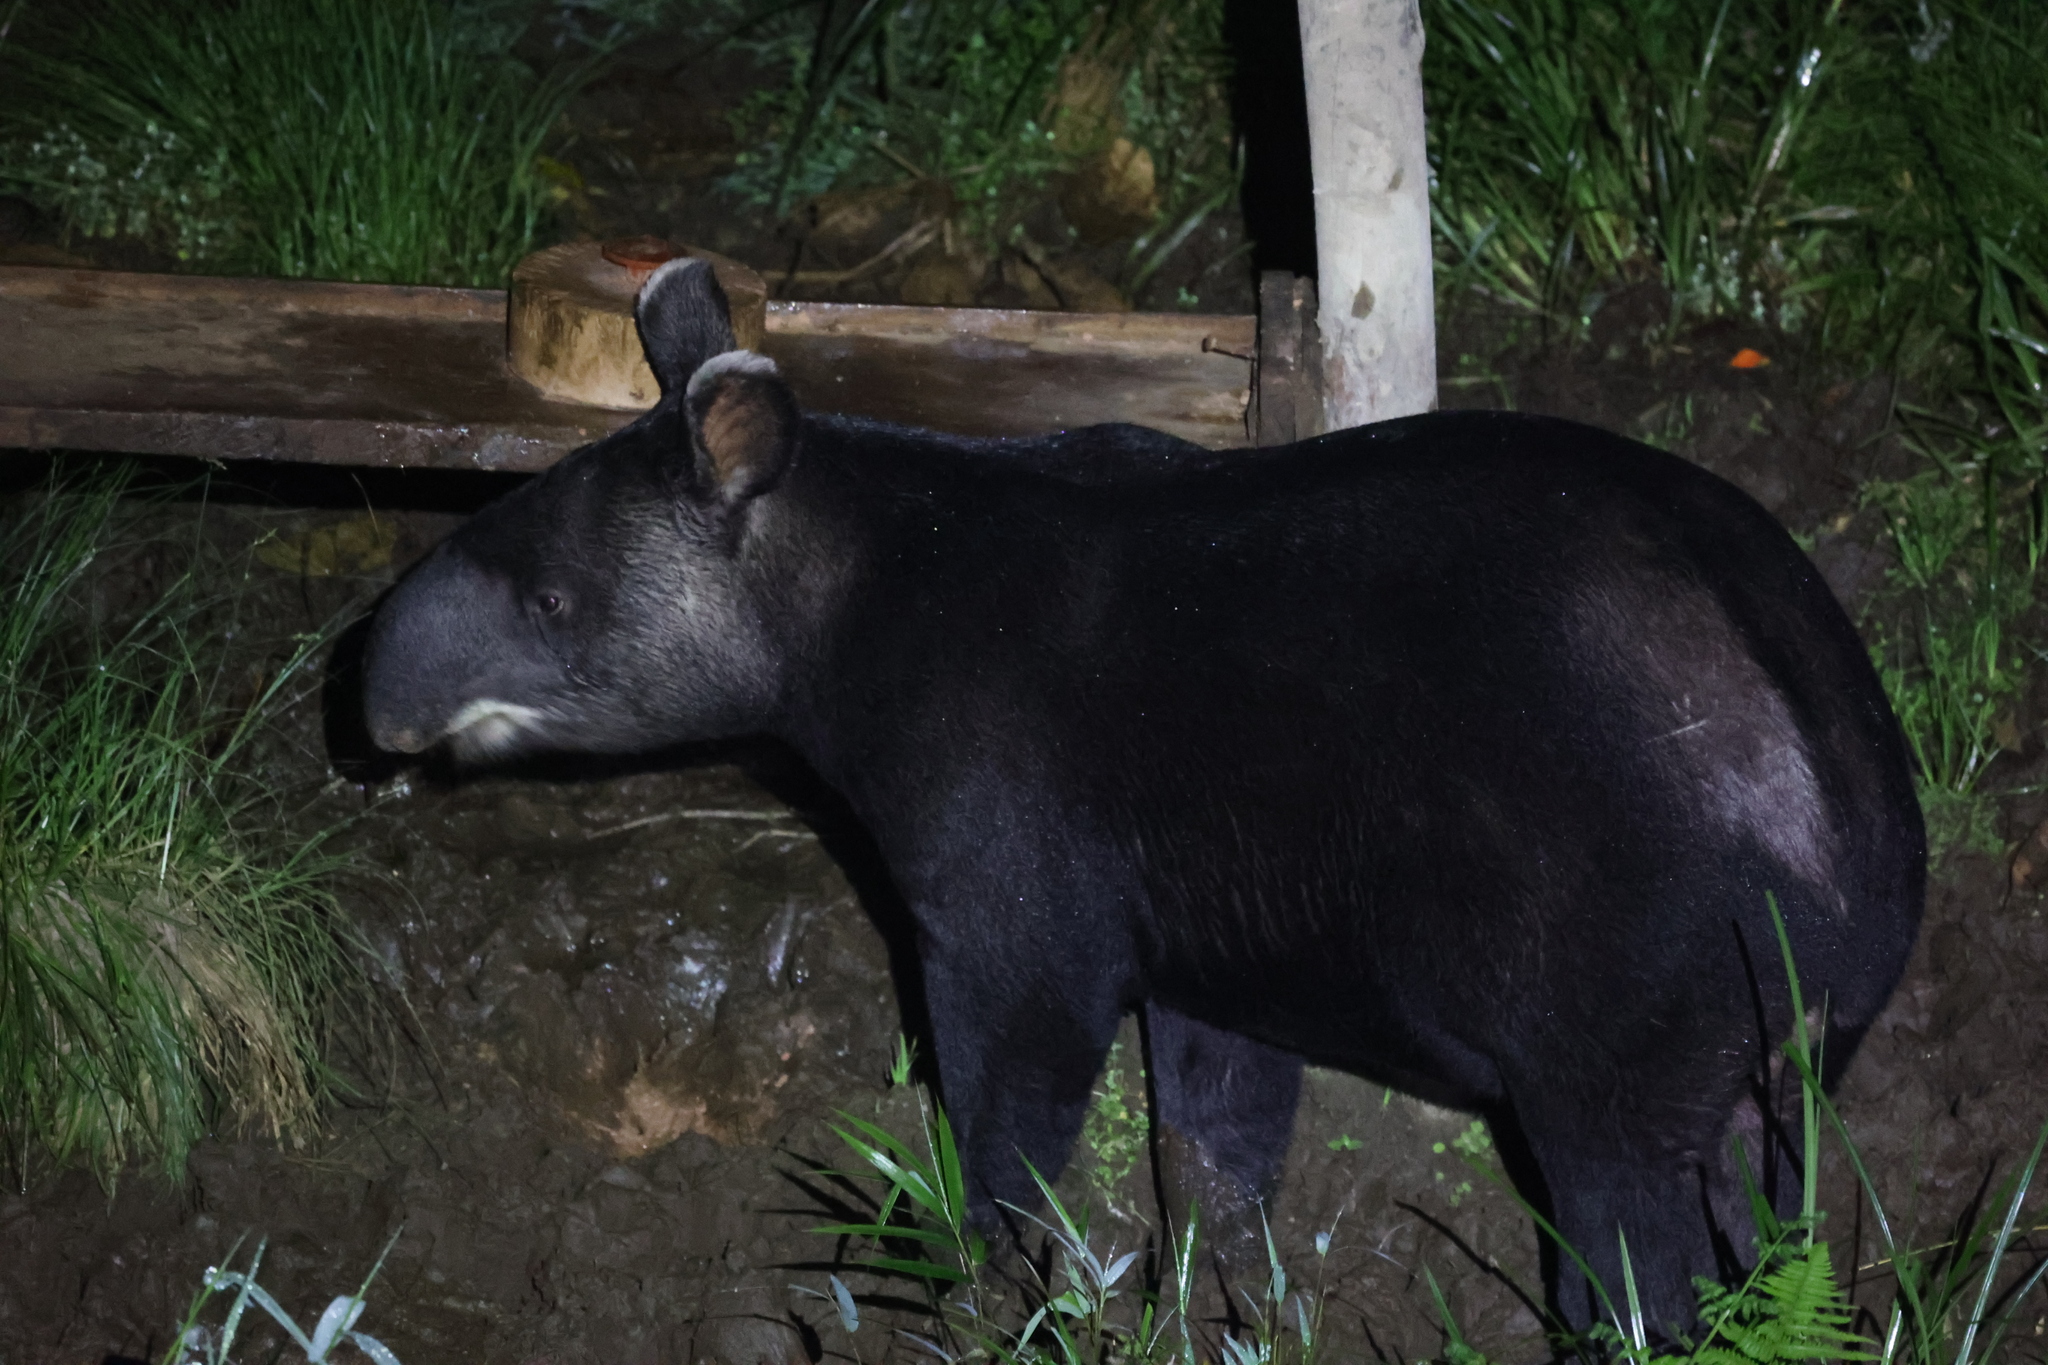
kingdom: Animalia
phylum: Chordata
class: Mammalia
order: Perissodactyla
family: Tapiridae
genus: Tapirus
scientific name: Tapirus pinchaque
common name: Mountain tapir
